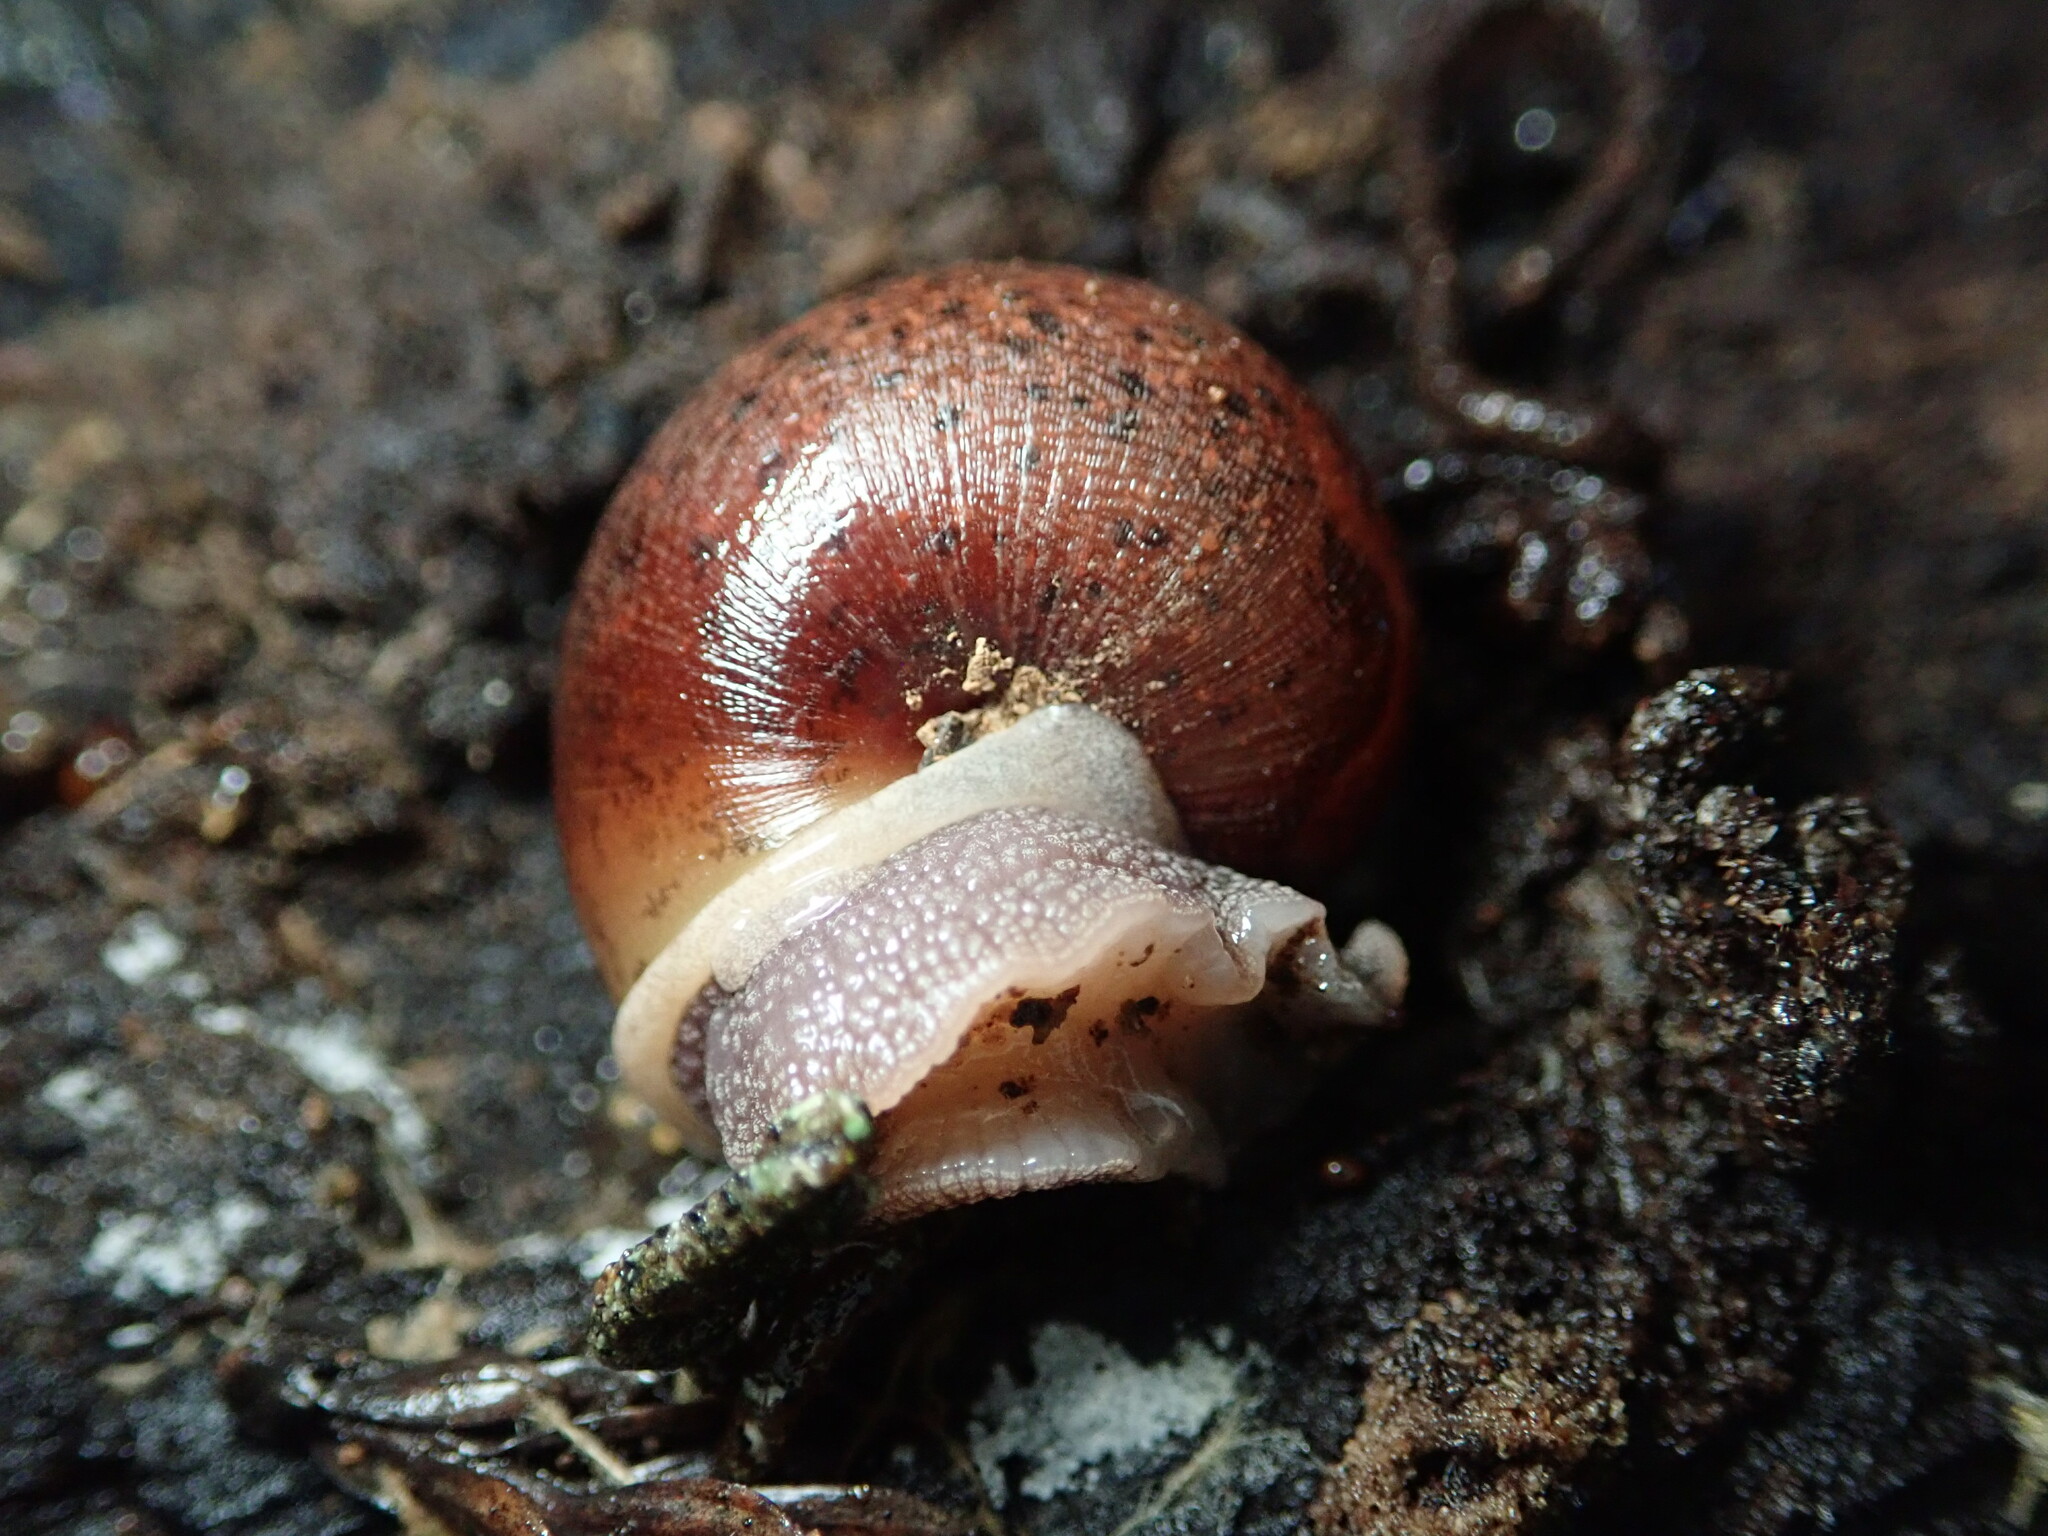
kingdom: Animalia
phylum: Mollusca
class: Gastropoda
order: Stylommatophora
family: Xanthonychidae
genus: Helminthoglypta
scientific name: Helminthoglypta nickliniana
